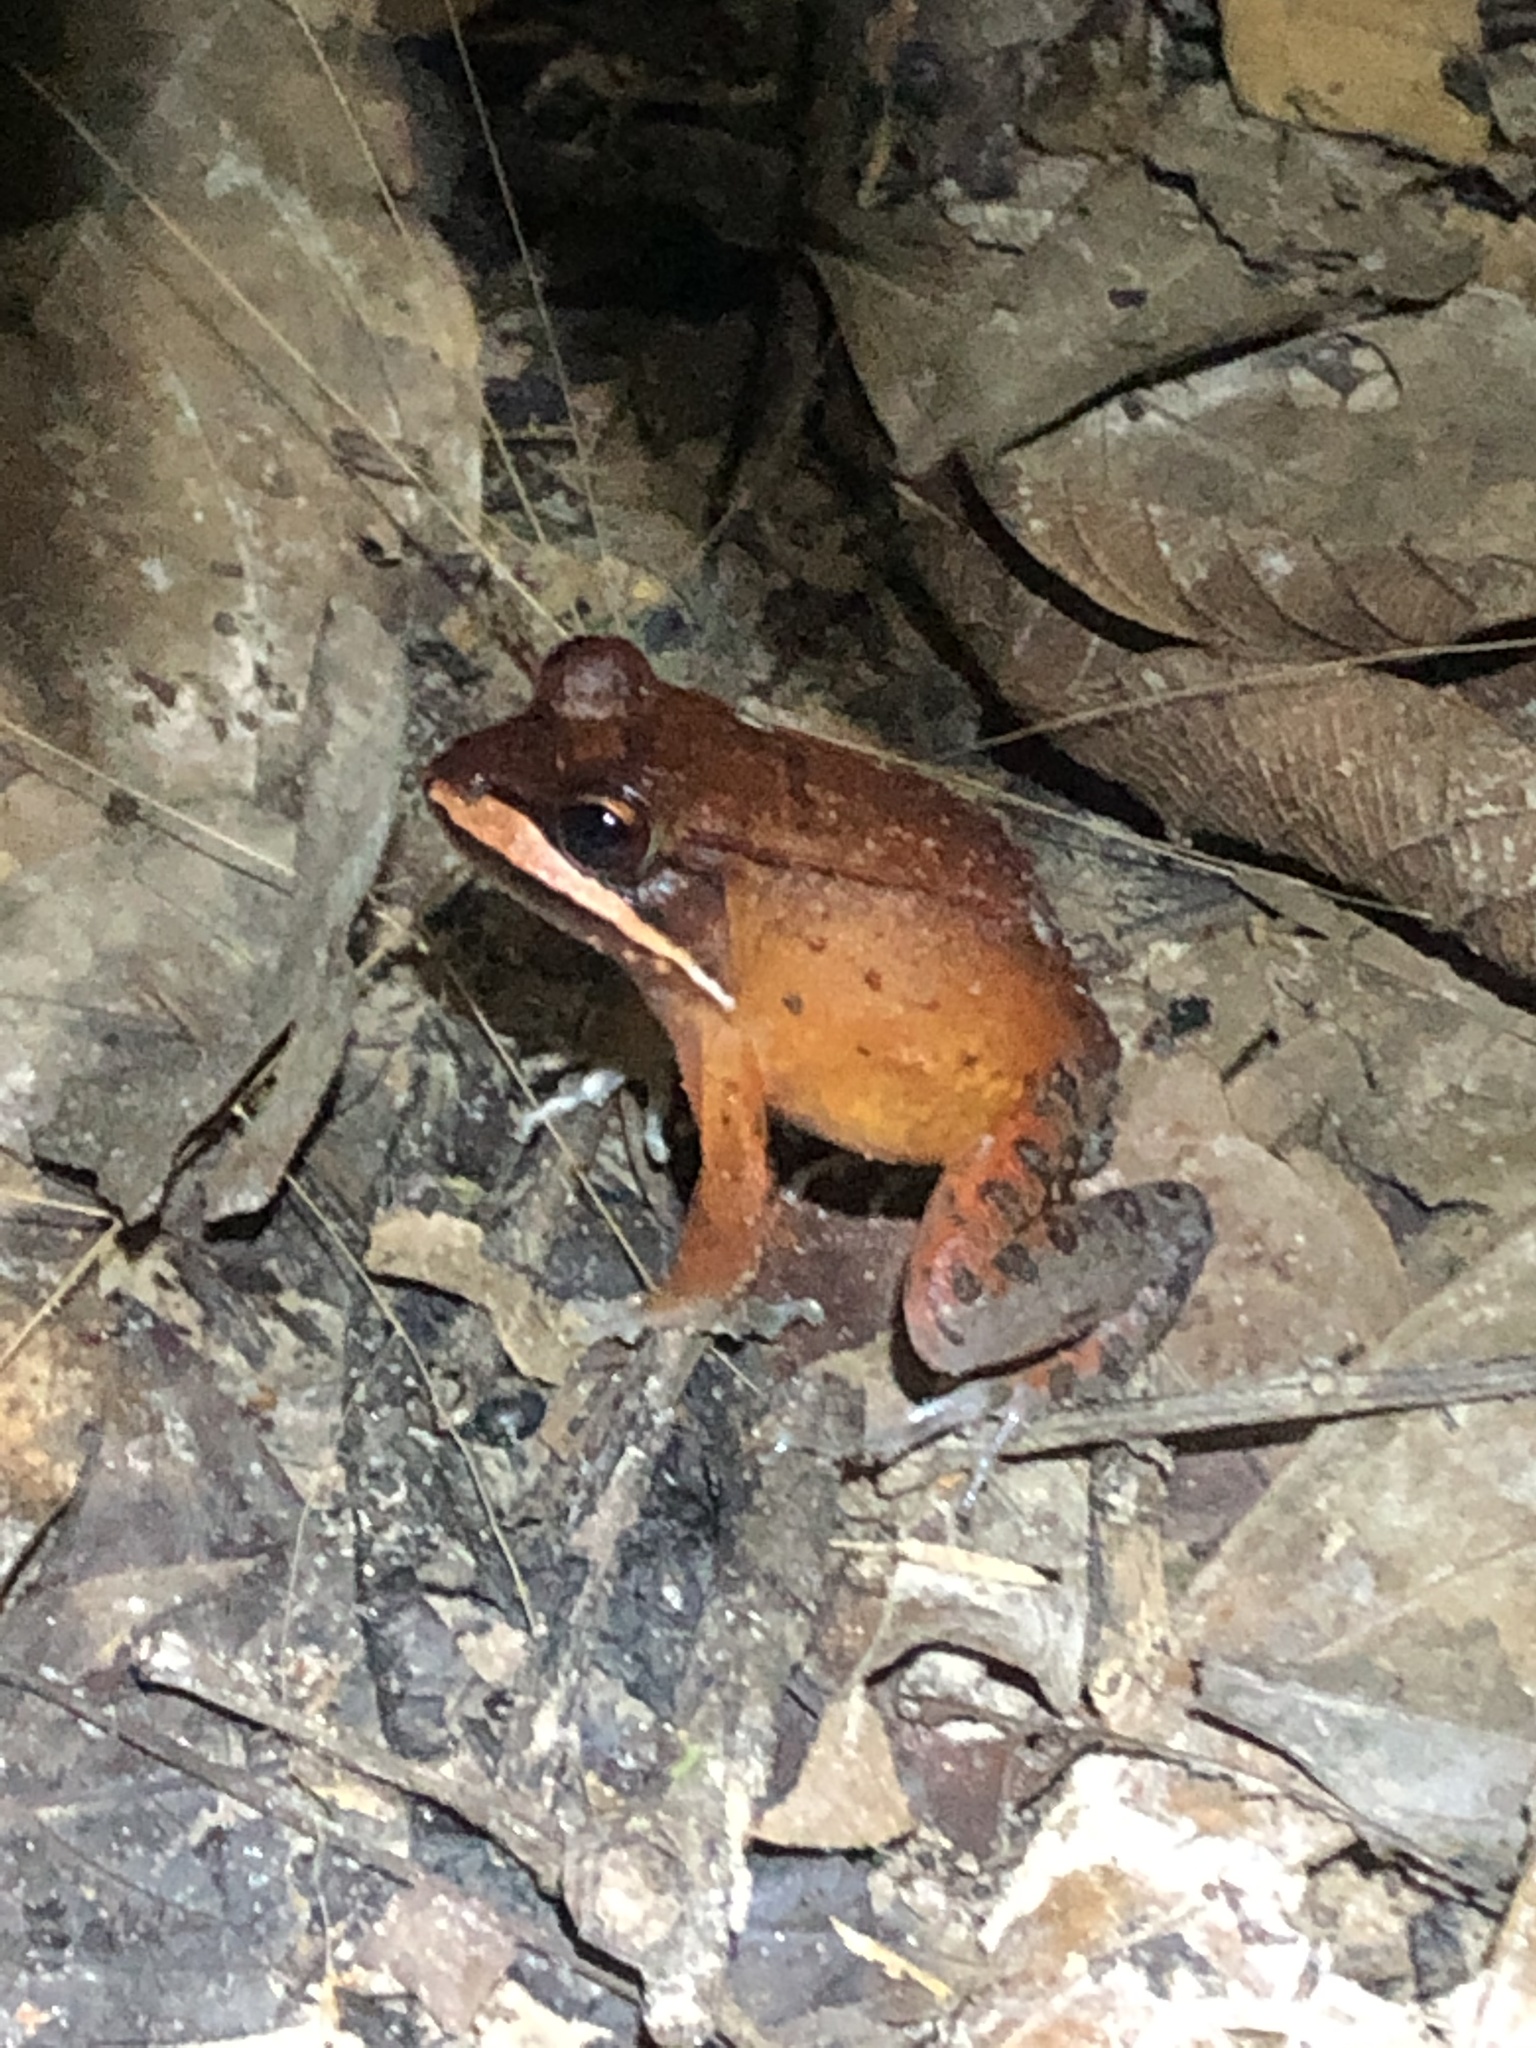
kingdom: Animalia
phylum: Chordata
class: Amphibia
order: Anura
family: Leptodactylidae
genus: Leptodactylus
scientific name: Leptodactylus rhodomystax
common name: Loreto white-lipped frog
